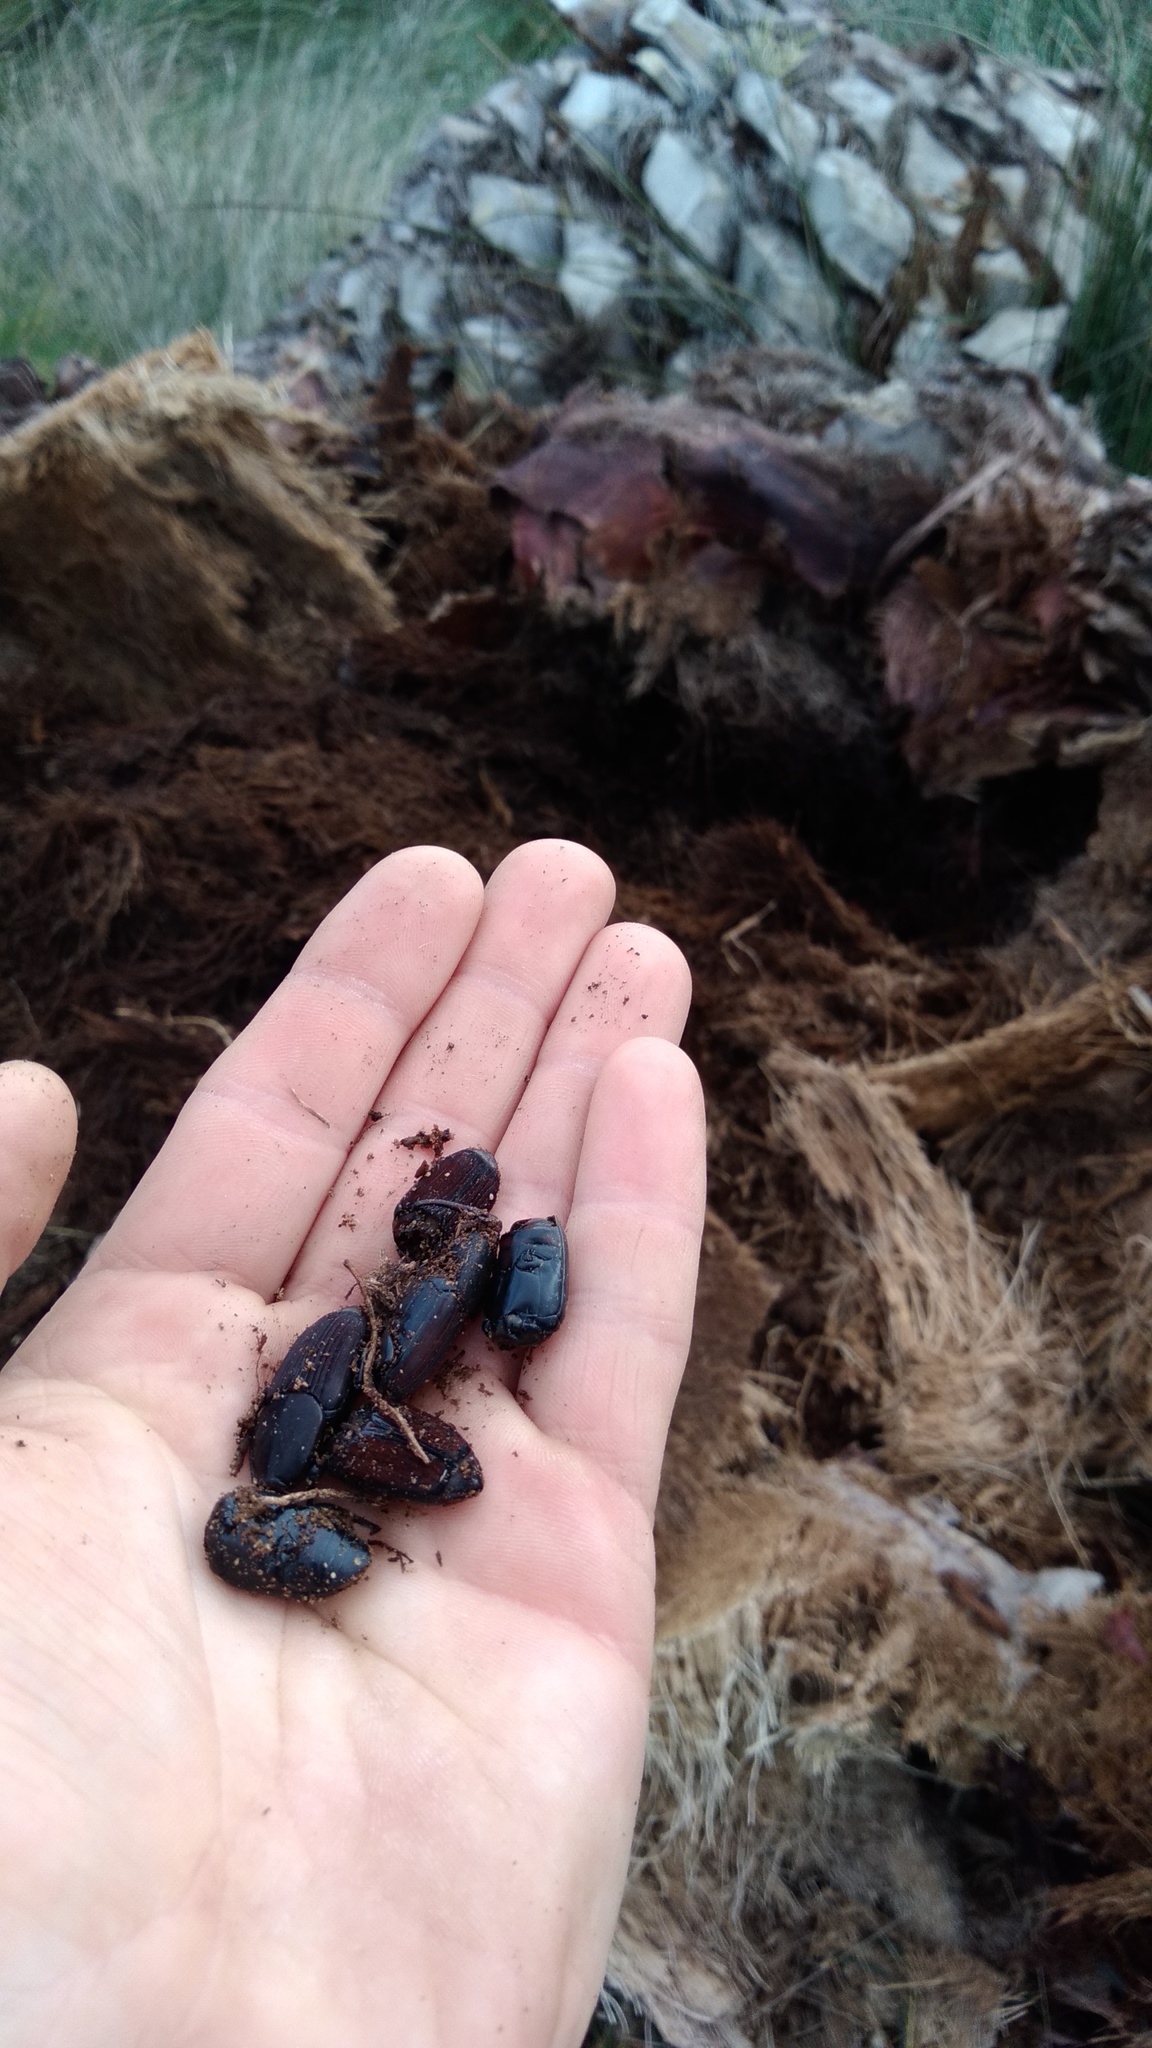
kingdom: Animalia
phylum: Arthropoda
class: Insecta
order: Coleoptera
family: Dryophthoridae
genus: Rhynchophorus
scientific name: Rhynchophorus ferrugineus
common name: Red palm weevil
